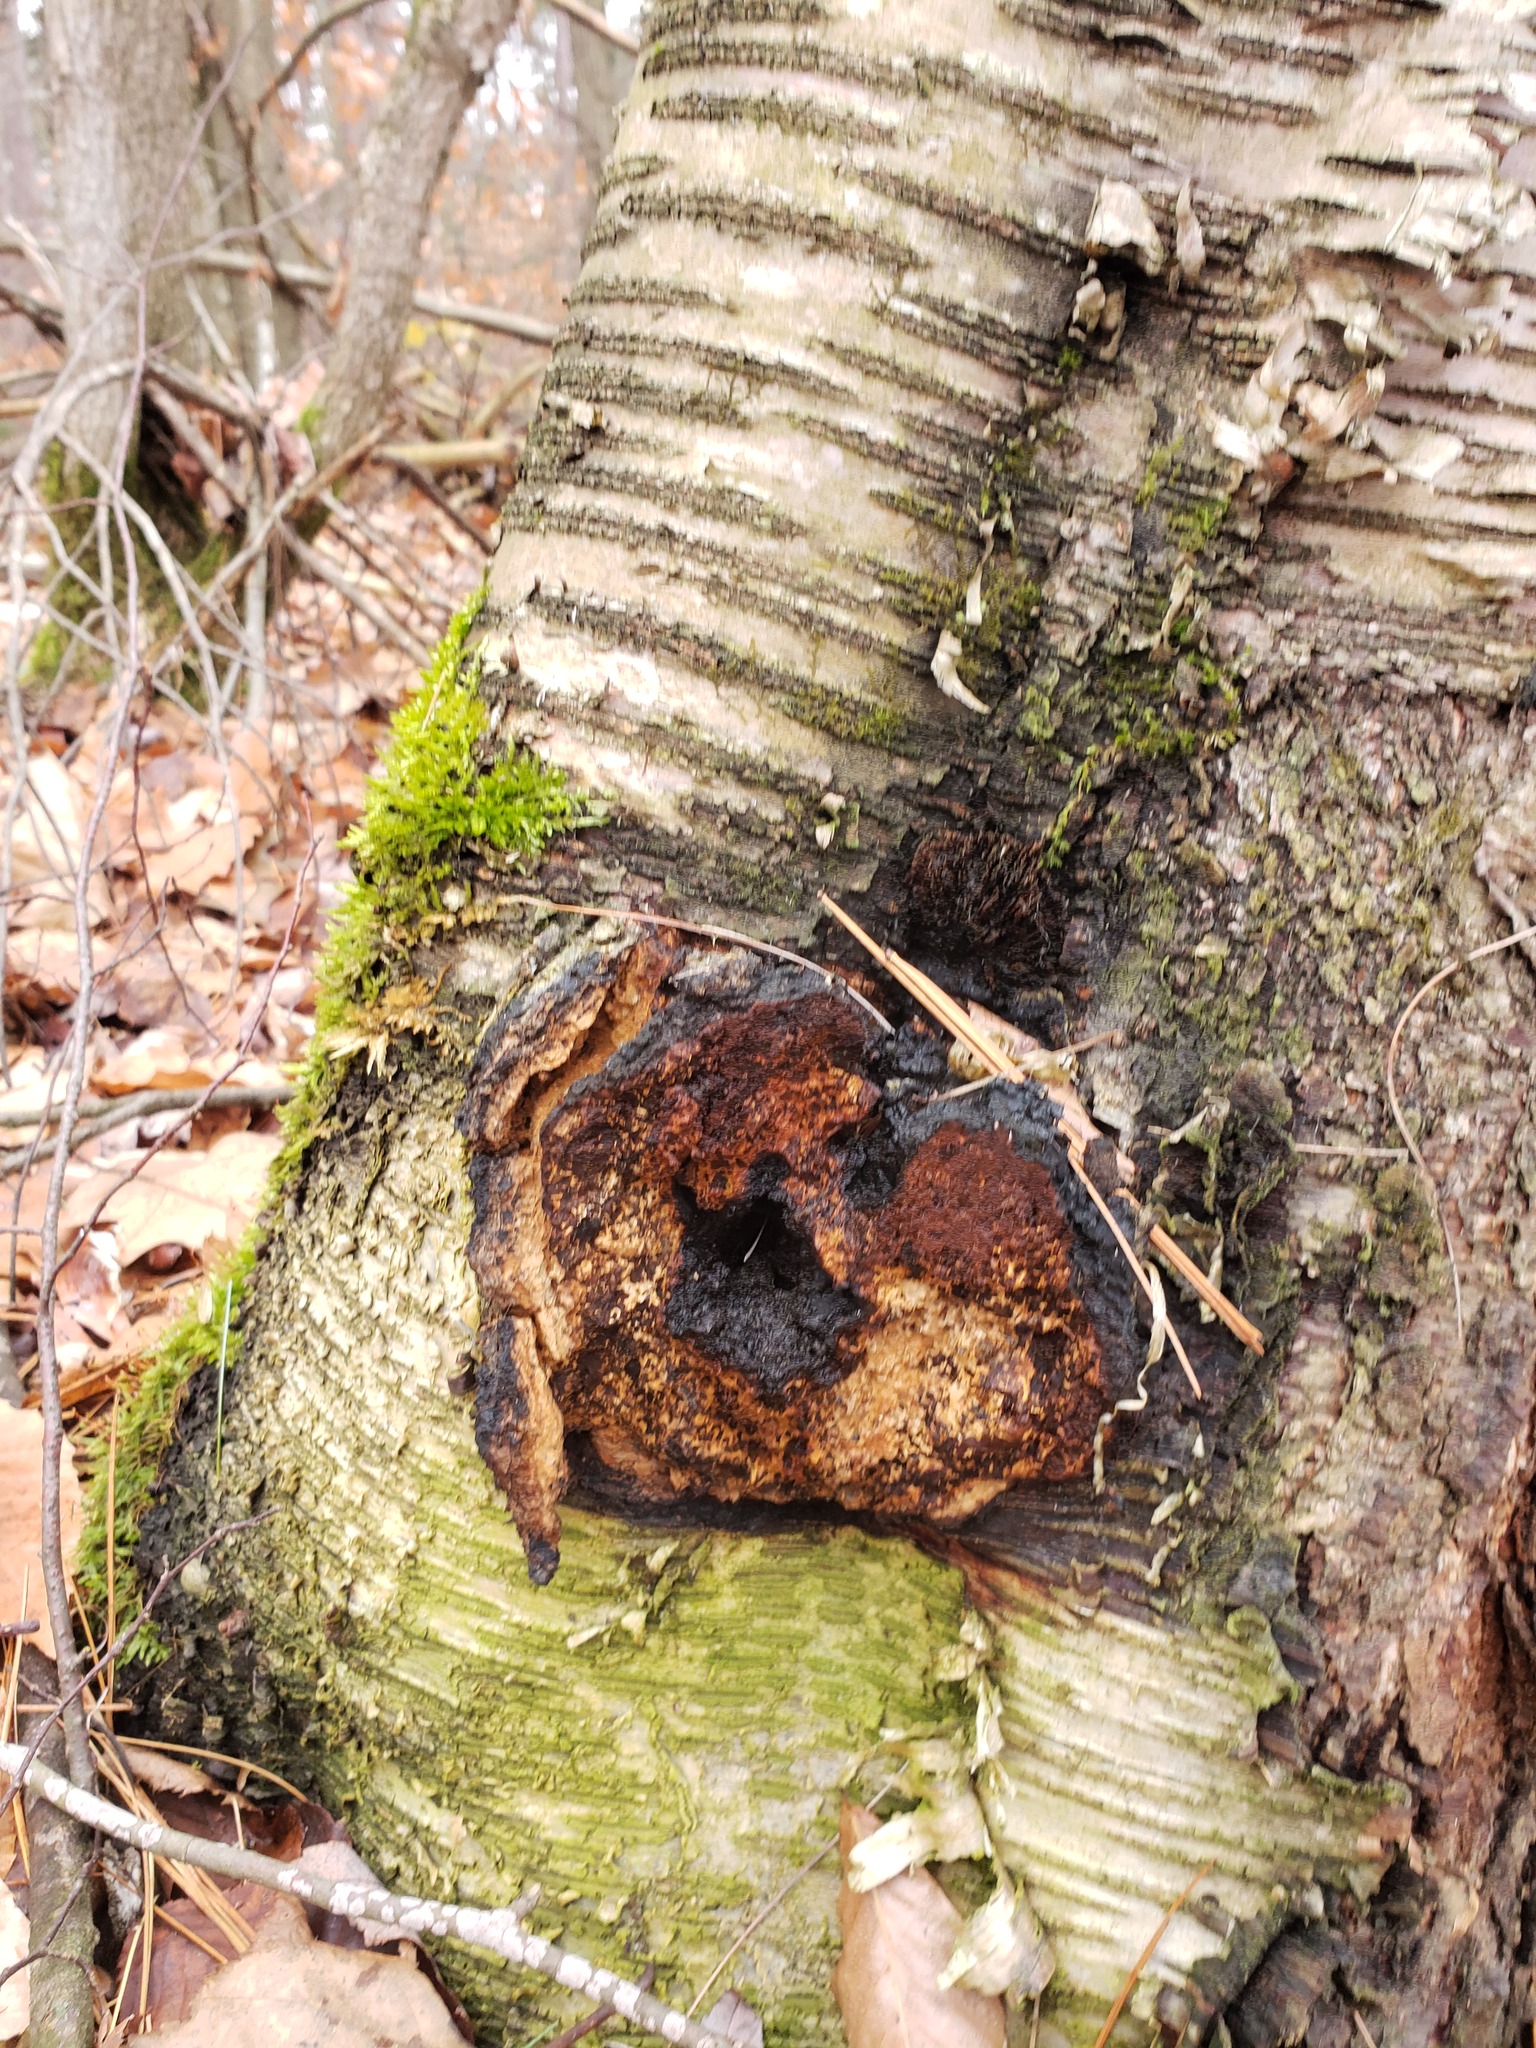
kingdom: Fungi
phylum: Basidiomycota
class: Agaricomycetes
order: Hymenochaetales
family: Hymenochaetaceae
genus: Inonotus
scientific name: Inonotus obliquus
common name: Chaga
